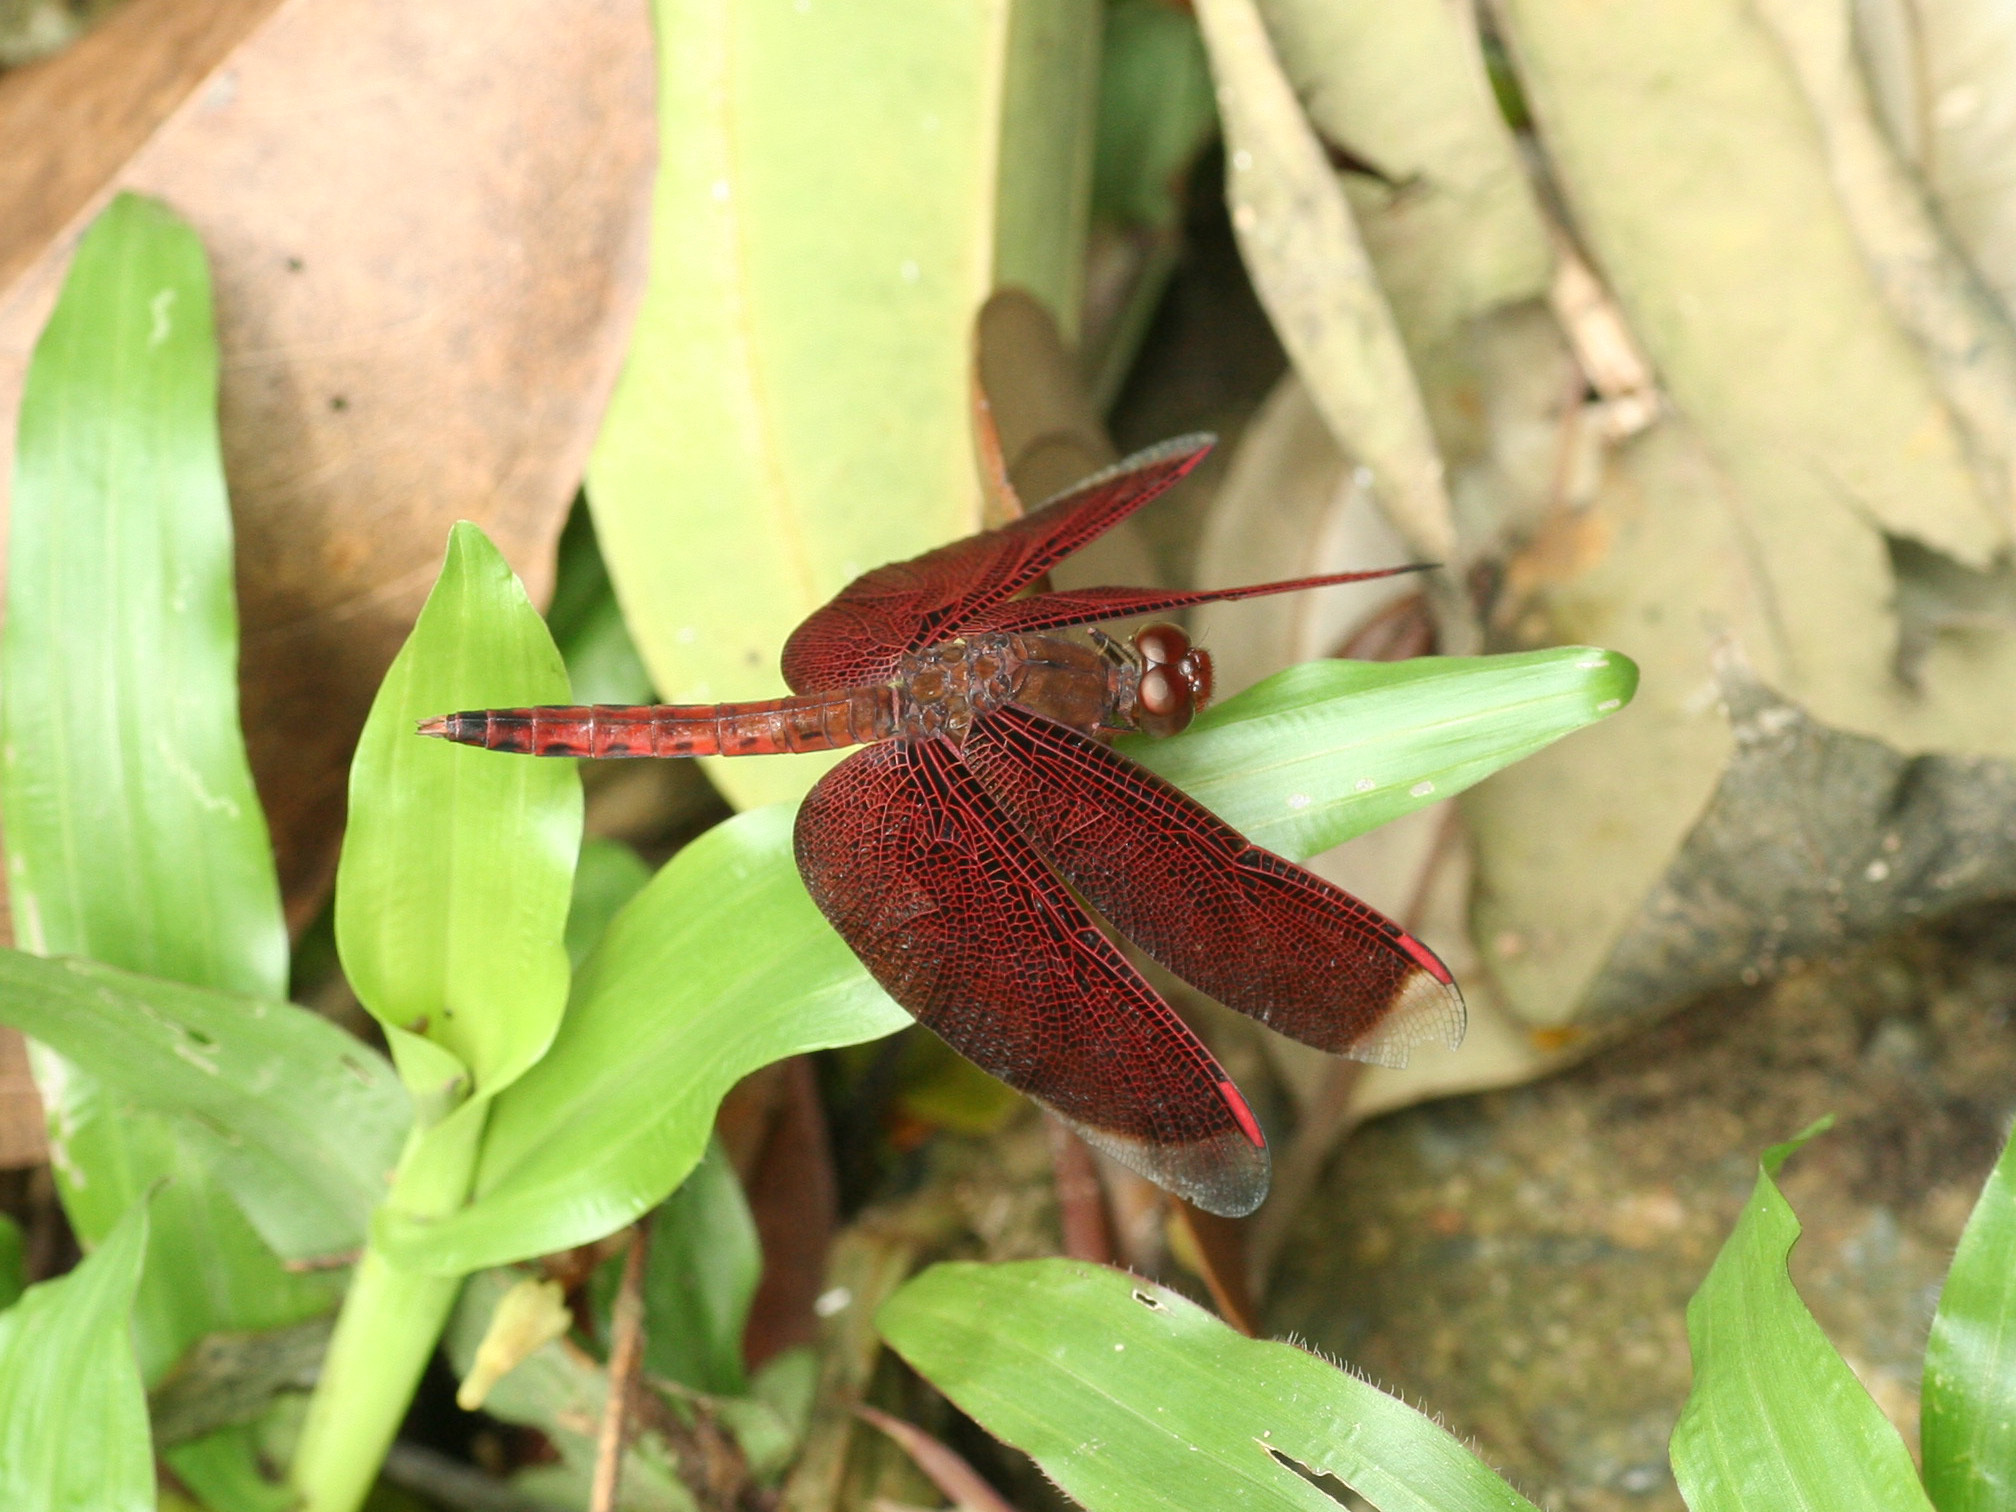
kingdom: Animalia
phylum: Arthropoda
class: Insecta
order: Odonata
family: Libellulidae
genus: Neurothemis
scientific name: Neurothemis fluctuans
